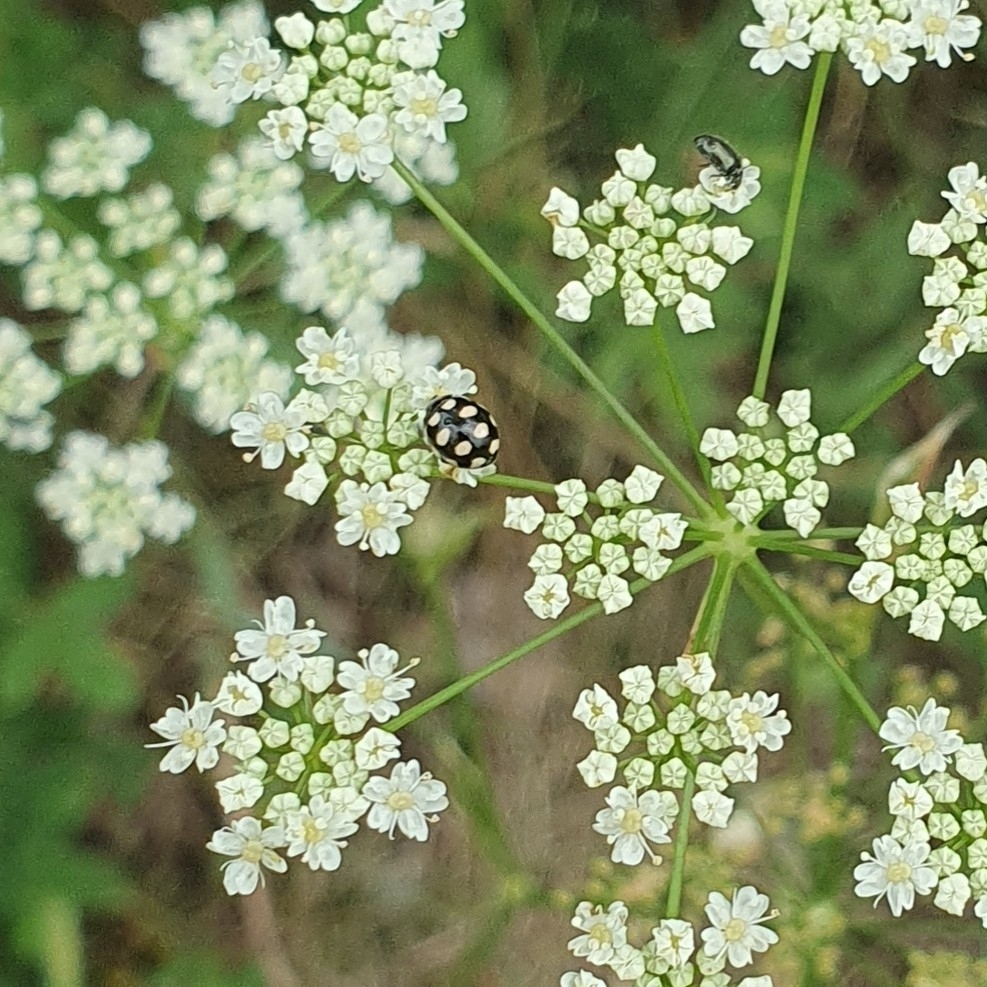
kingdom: Animalia
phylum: Arthropoda
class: Insecta
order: Coleoptera
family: Coccinellidae
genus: Coccinula
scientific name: Coccinula quatuordecimpustulata
